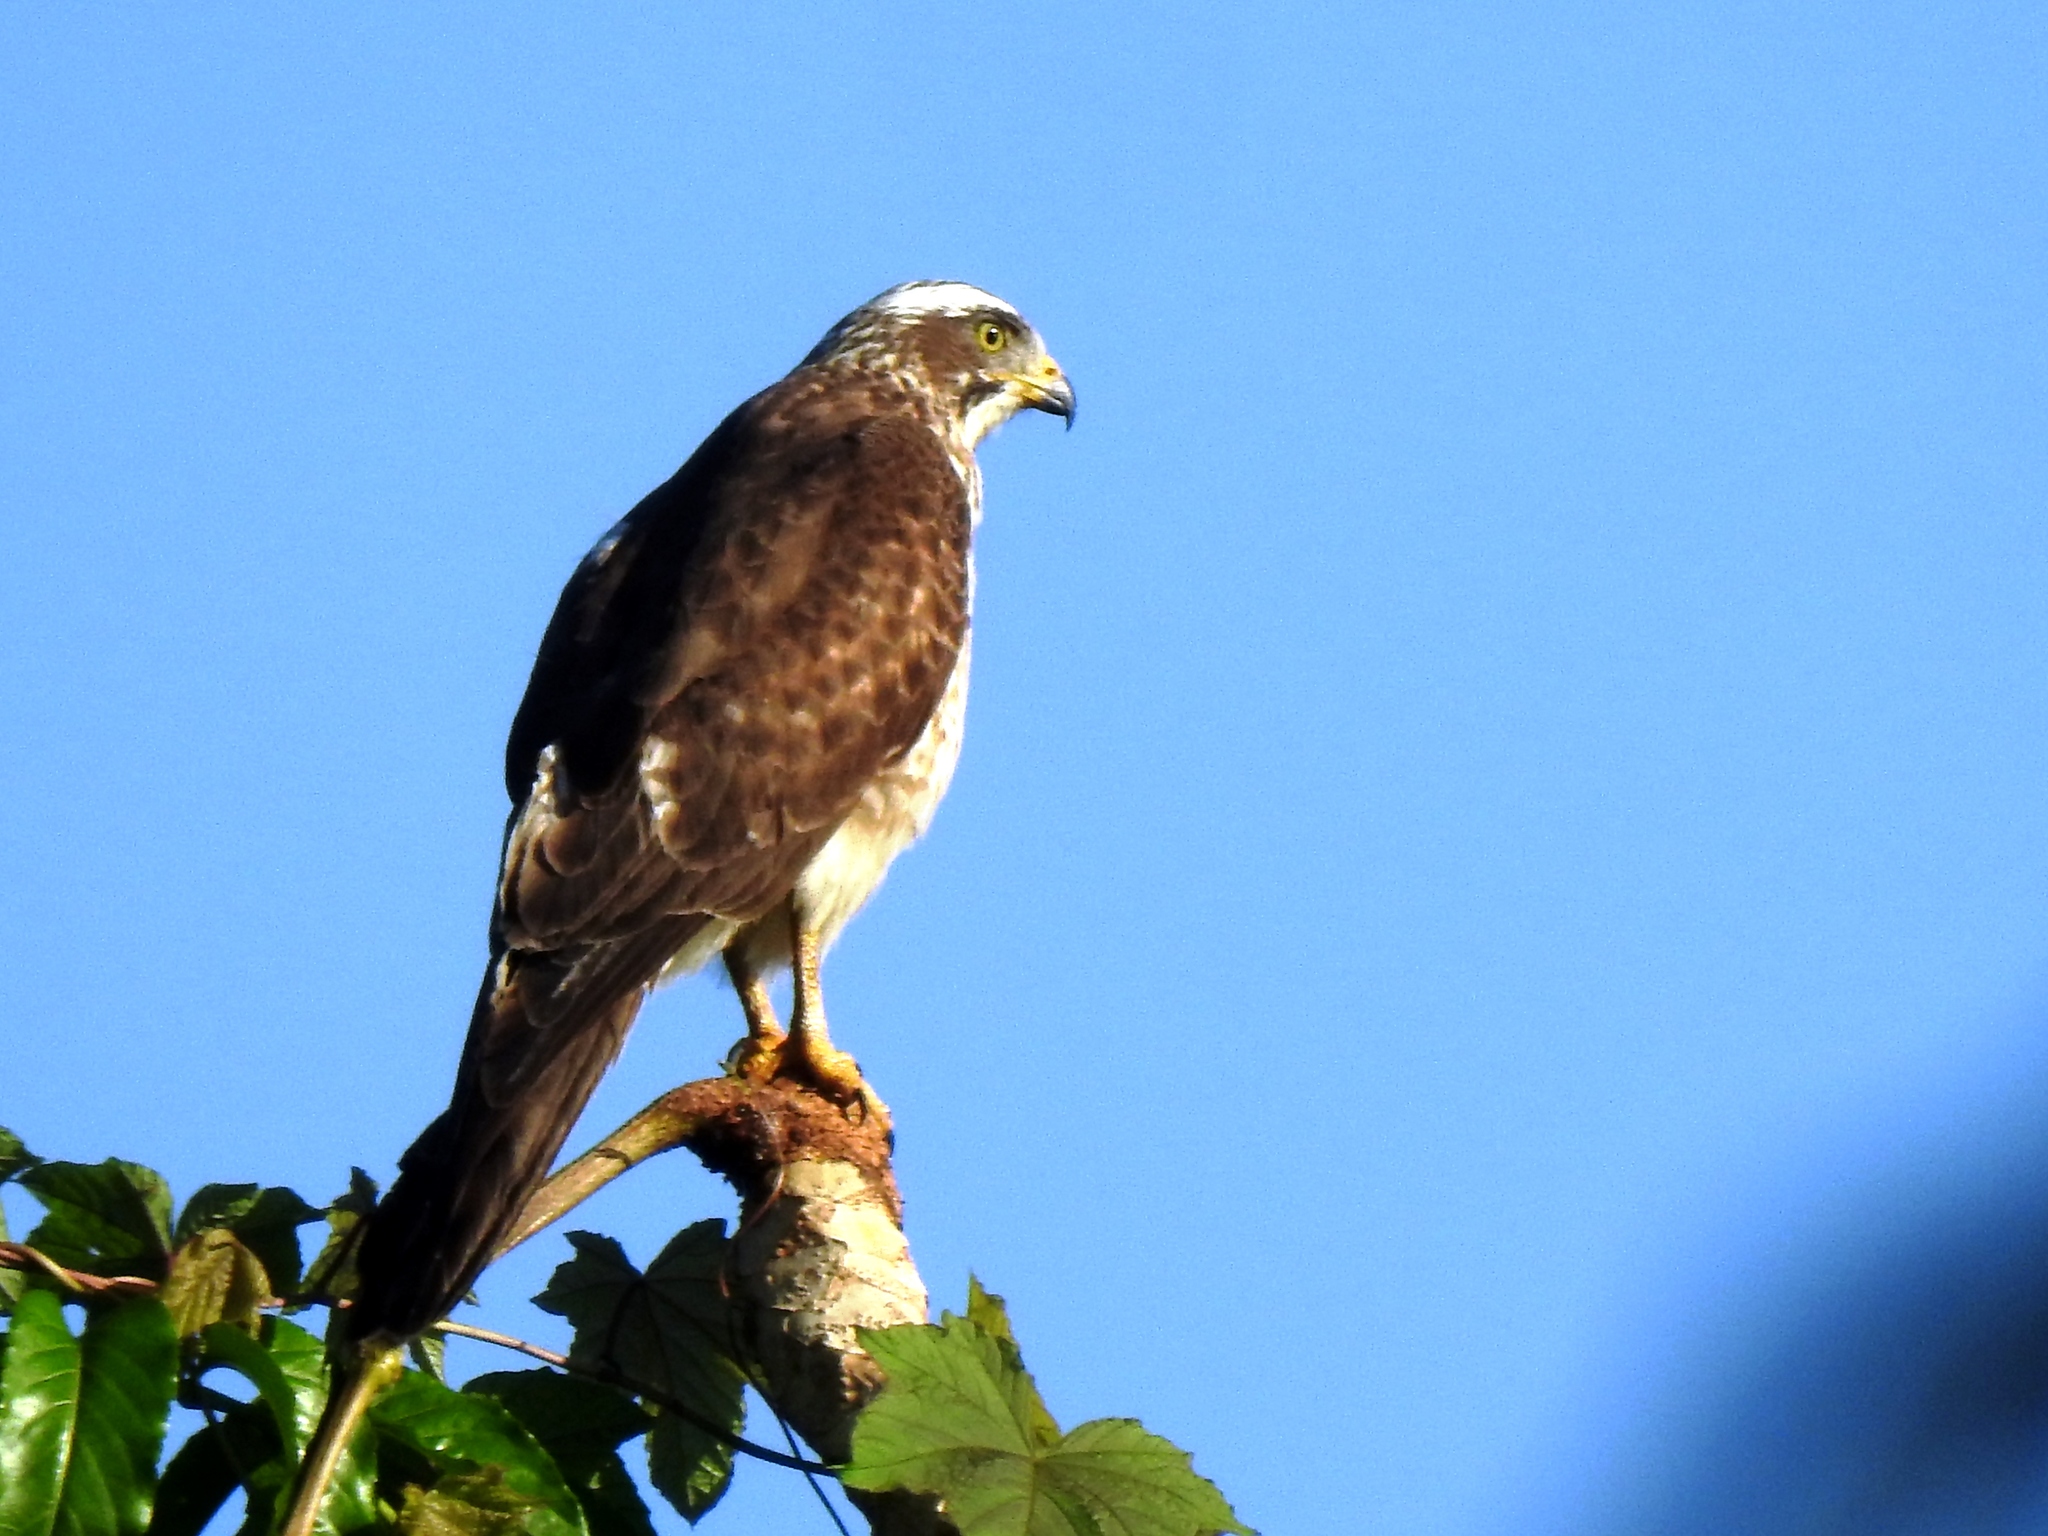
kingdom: Animalia
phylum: Chordata
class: Aves
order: Accipitriformes
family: Accipitridae
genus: Butastur
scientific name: Butastur indicus
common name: Grey-faced buzzard
